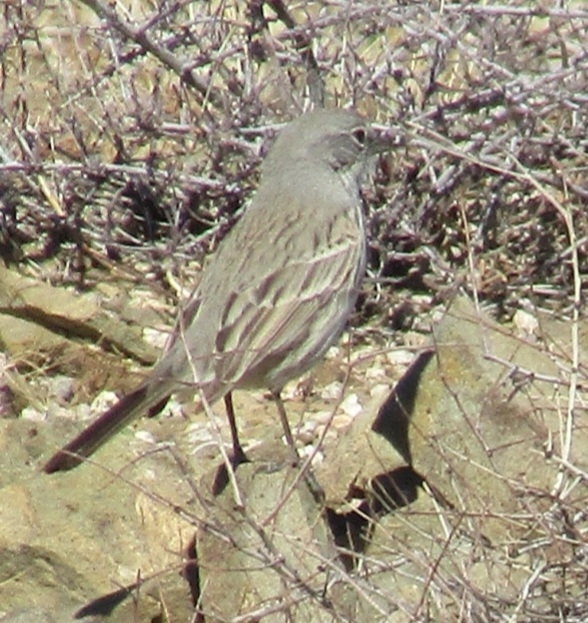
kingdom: Animalia
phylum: Chordata
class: Aves
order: Passeriformes
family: Passerellidae
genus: Artemisiospiza
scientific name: Artemisiospiza
